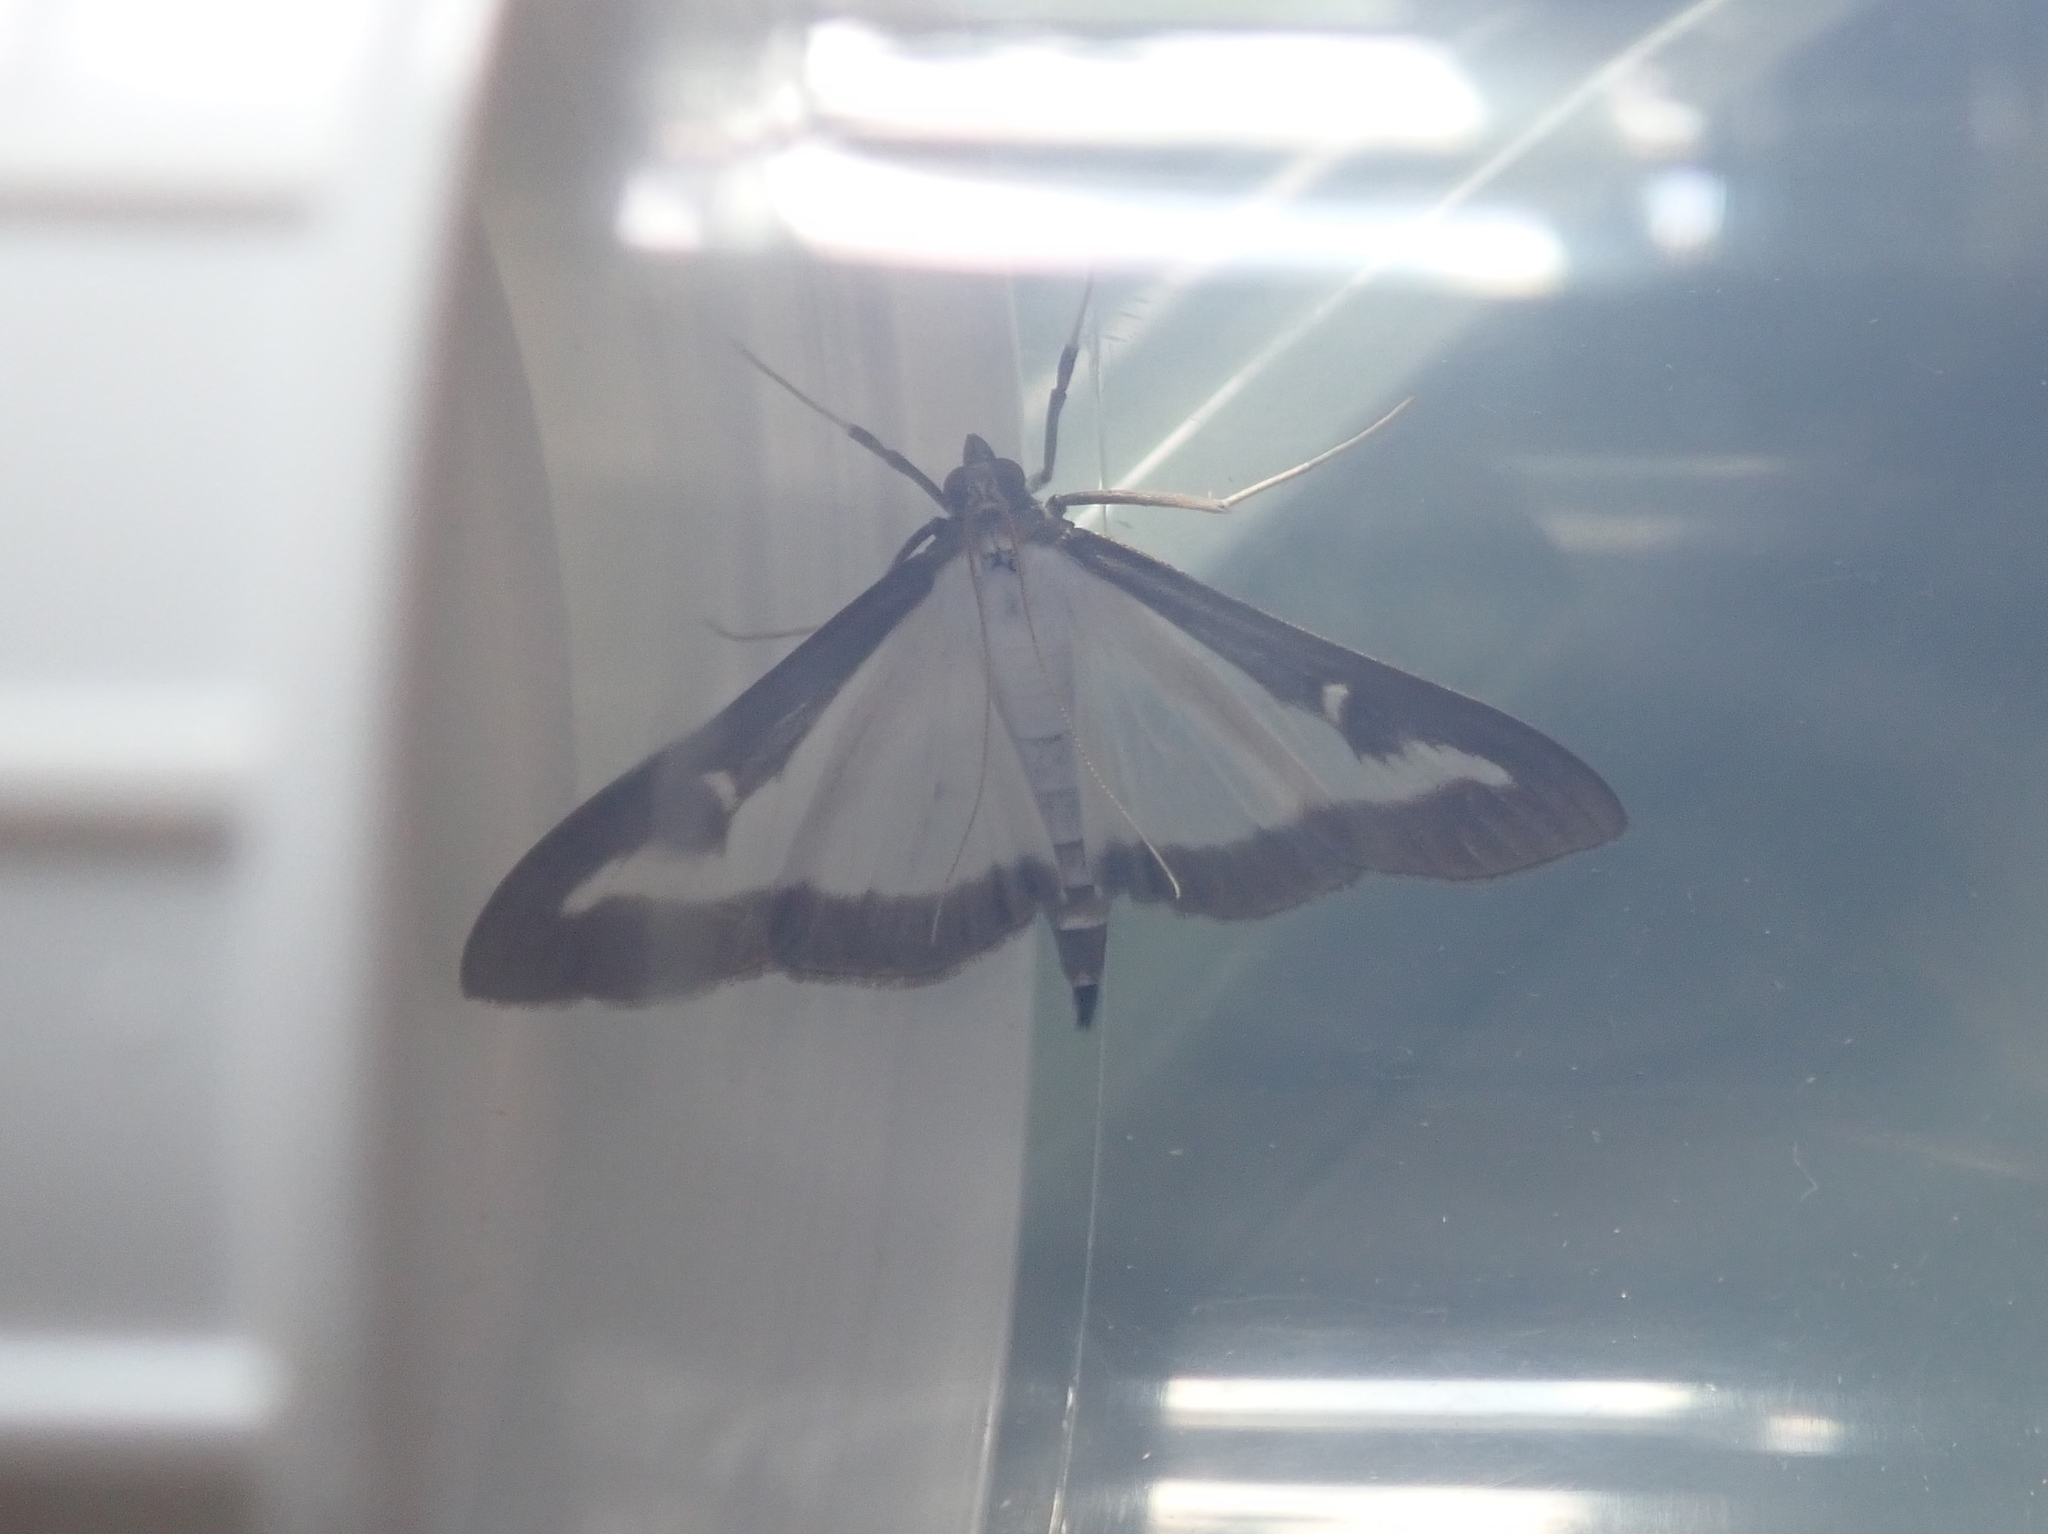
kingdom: Animalia
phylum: Arthropoda
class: Insecta
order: Lepidoptera
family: Crambidae
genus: Cydalima
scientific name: Cydalima perspectalis
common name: Box tree moth
